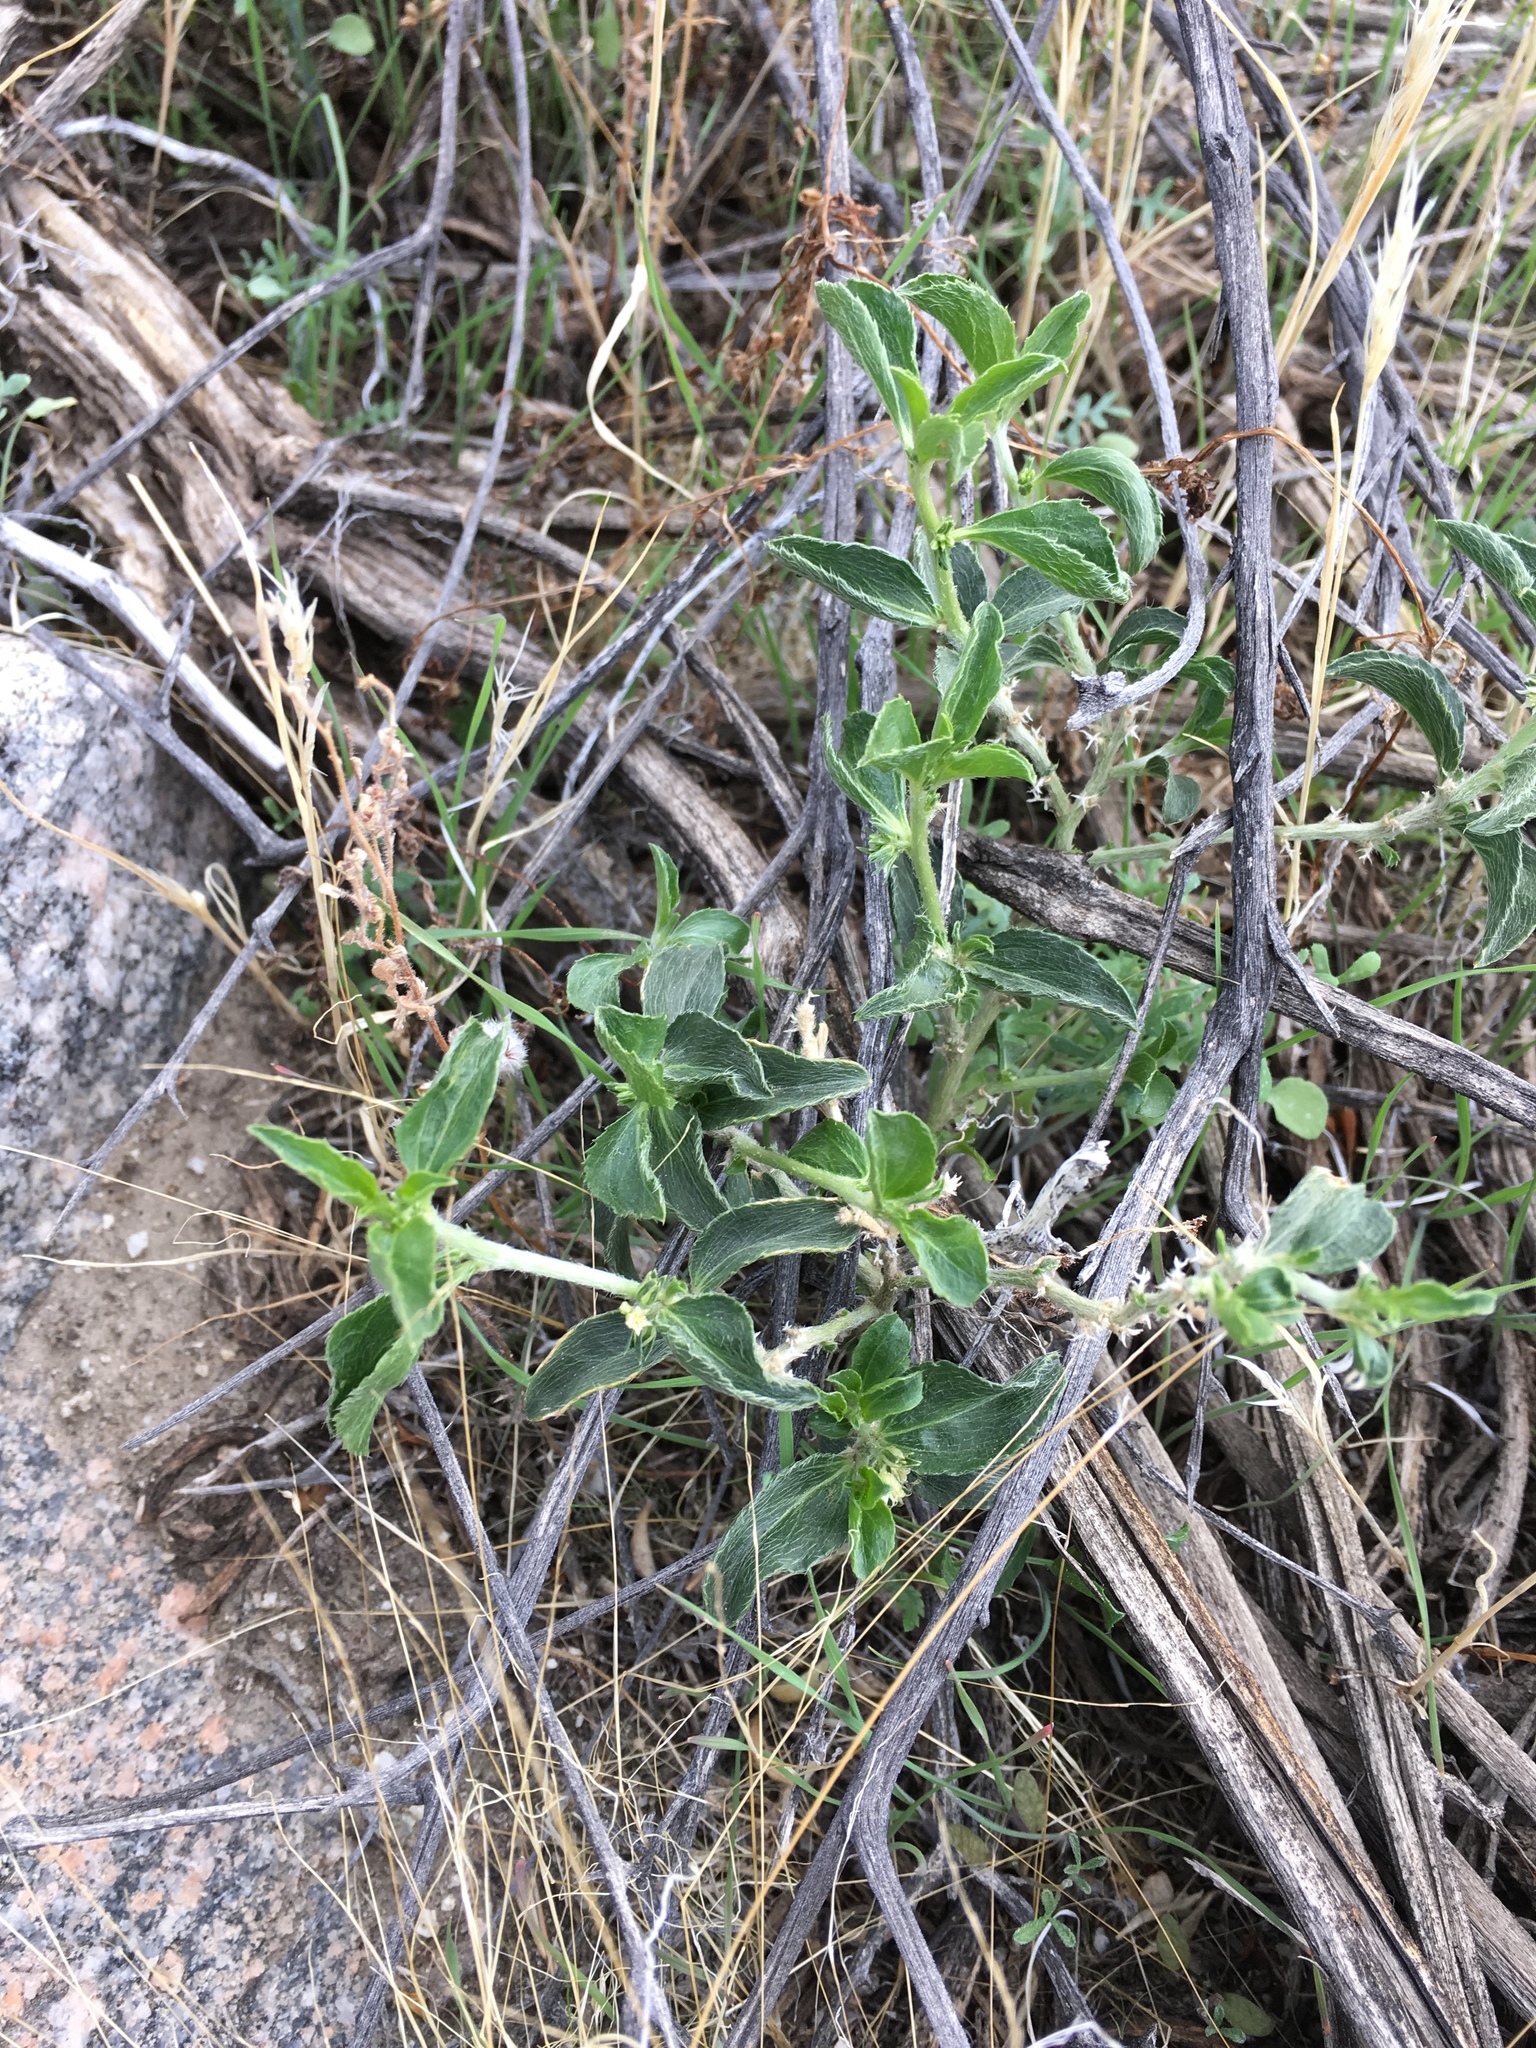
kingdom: Plantae
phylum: Tracheophyta
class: Magnoliopsida
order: Malpighiales
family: Euphorbiaceae
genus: Ditaxis
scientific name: Ditaxis serrata
